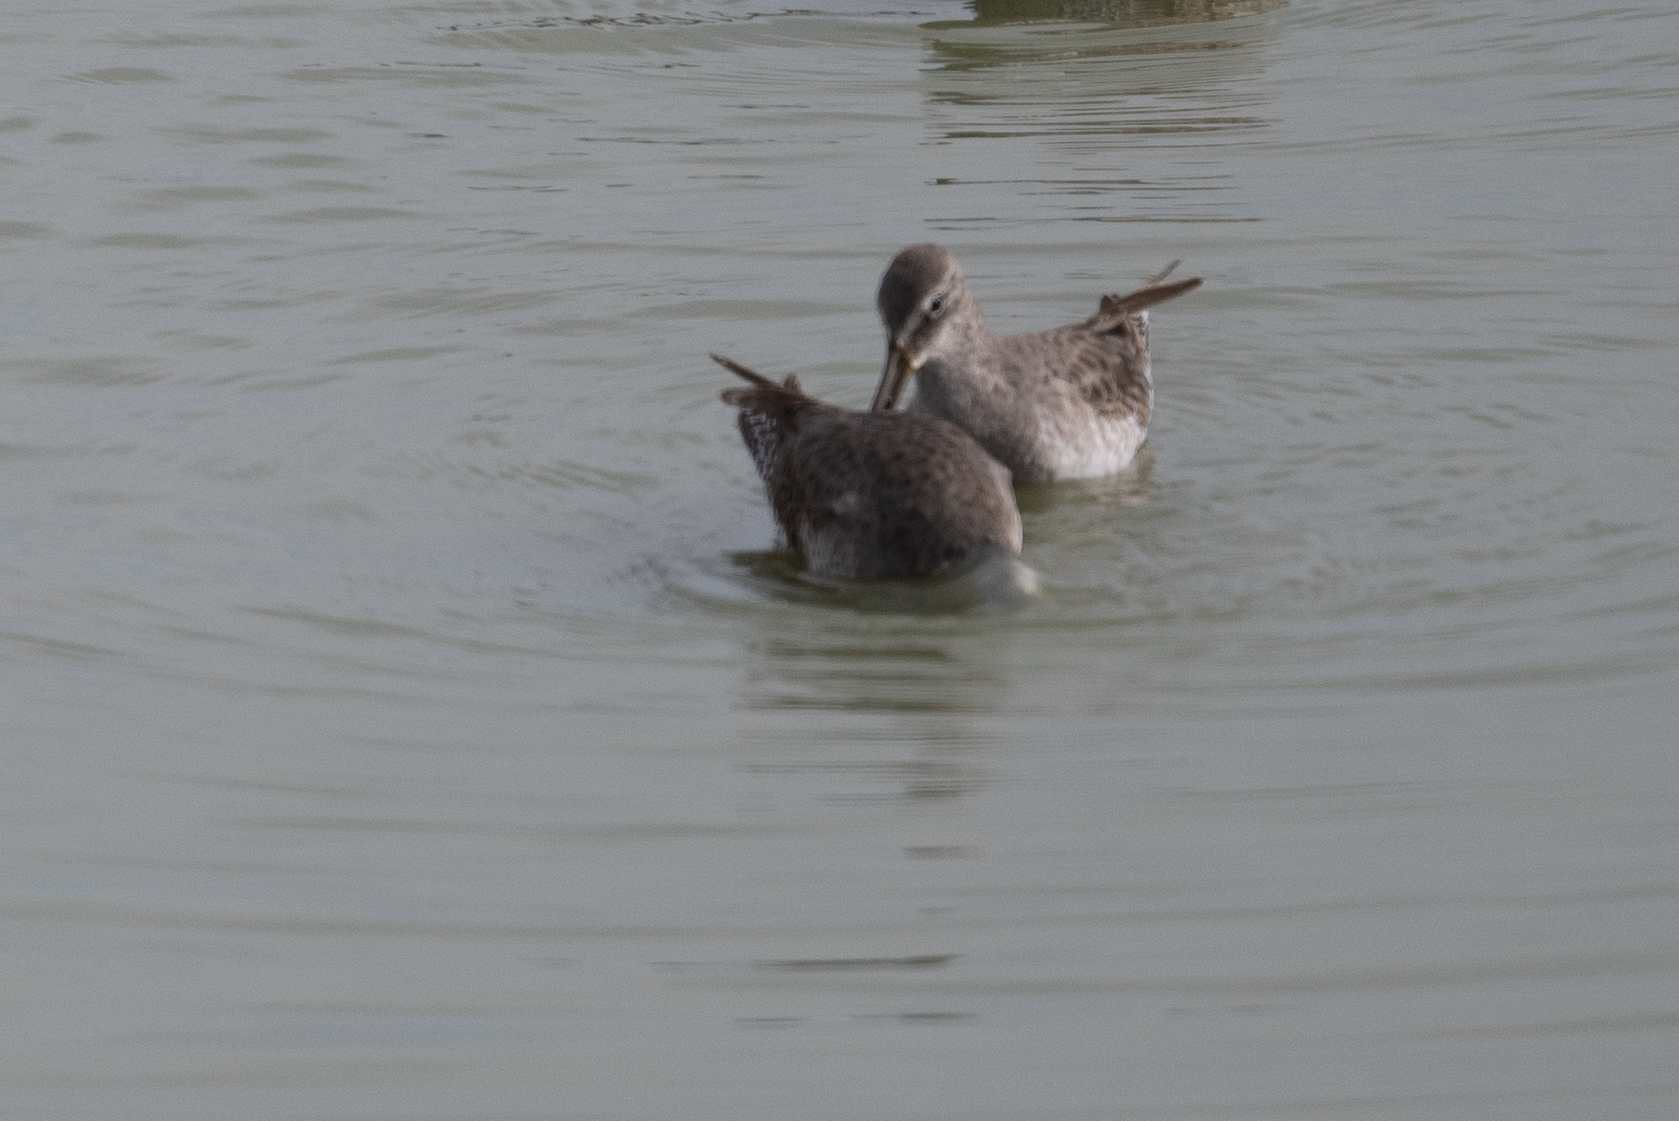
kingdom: Animalia
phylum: Chordata
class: Aves
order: Charadriiformes
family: Scolopacidae
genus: Limnodromus
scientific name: Limnodromus scolopaceus
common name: Long-billed dowitcher
